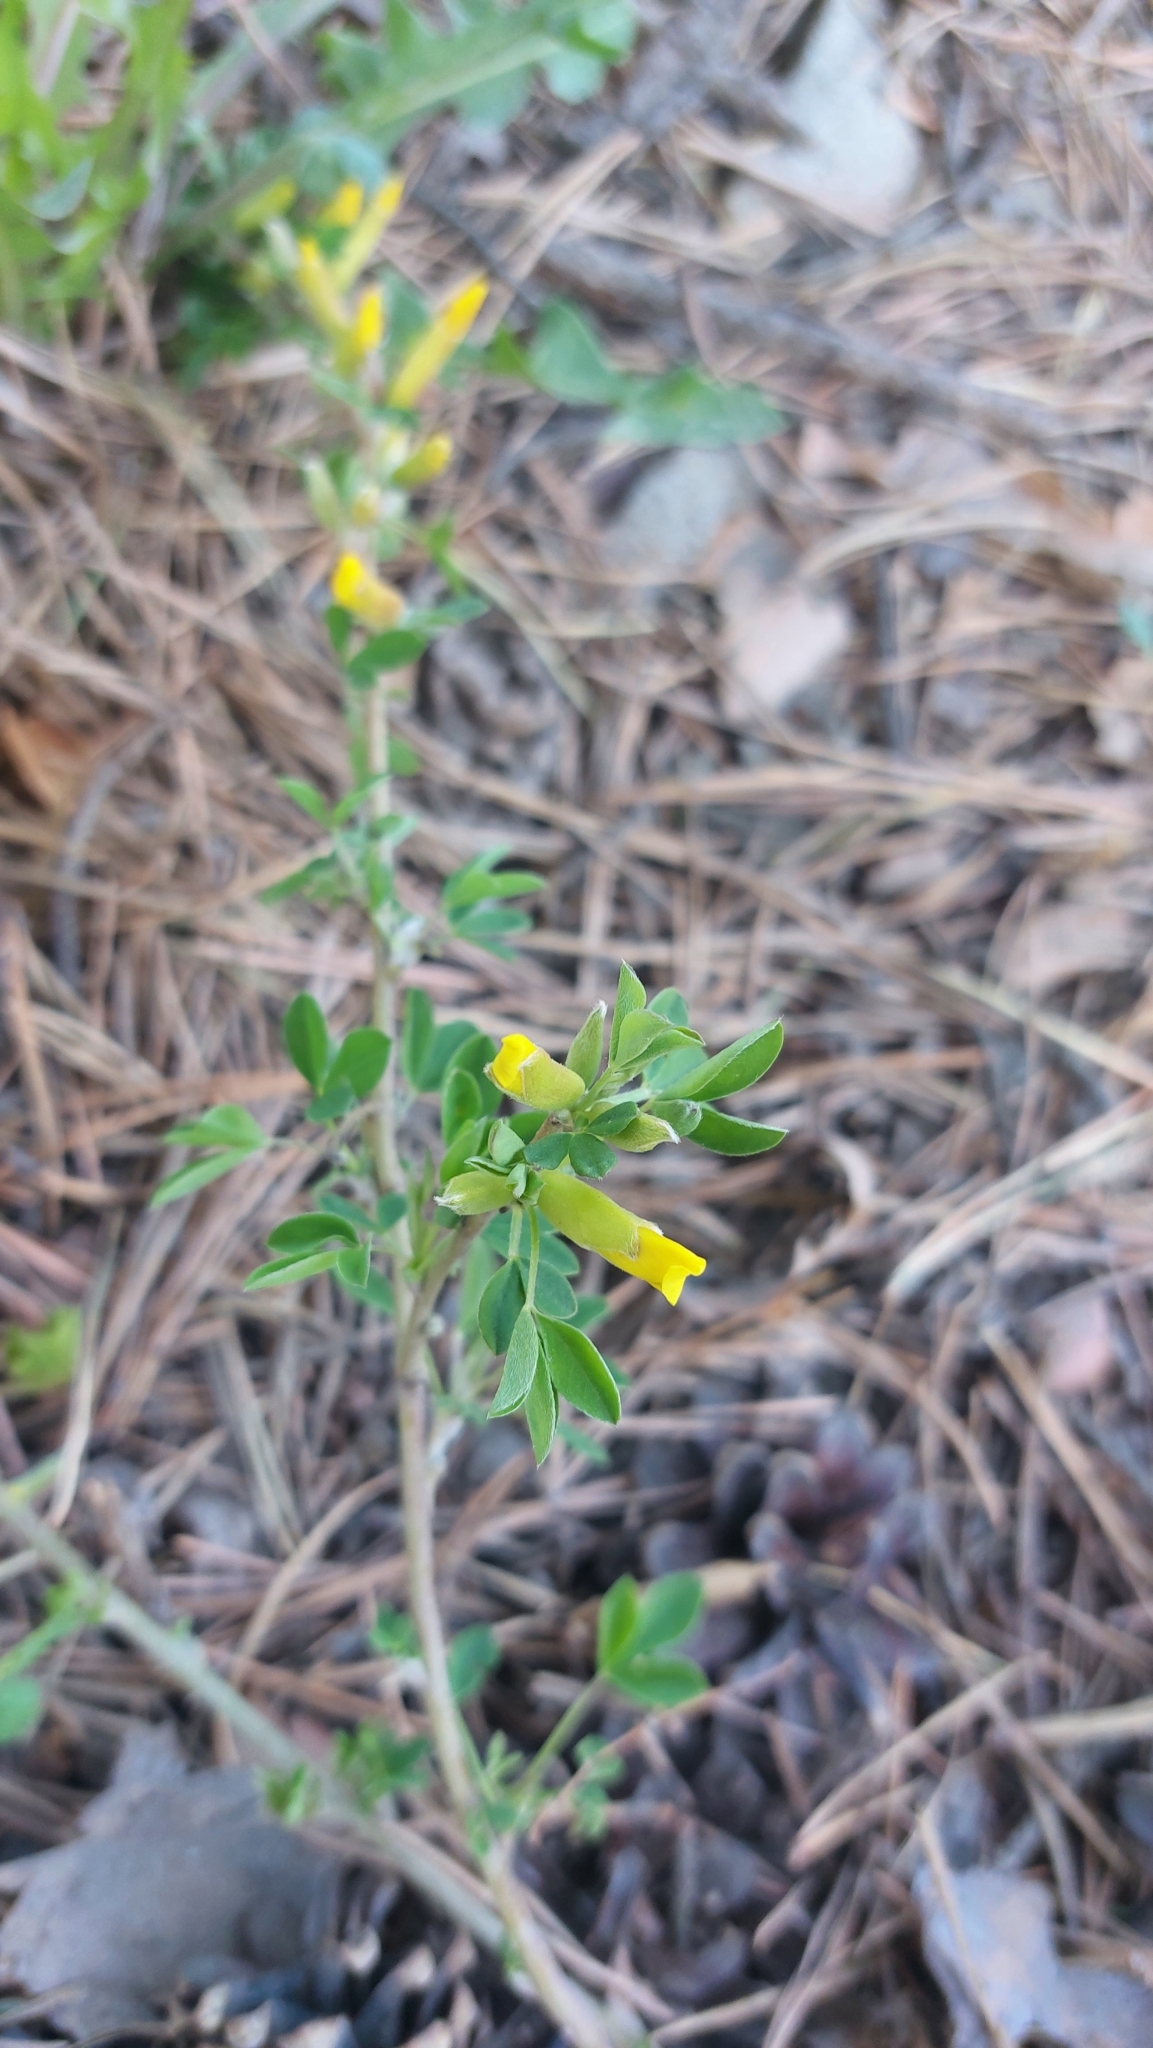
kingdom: Plantae
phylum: Tracheophyta
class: Magnoliopsida
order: Fabales
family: Fabaceae
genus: Chamaecytisus
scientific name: Chamaecytisus ruthenicus
